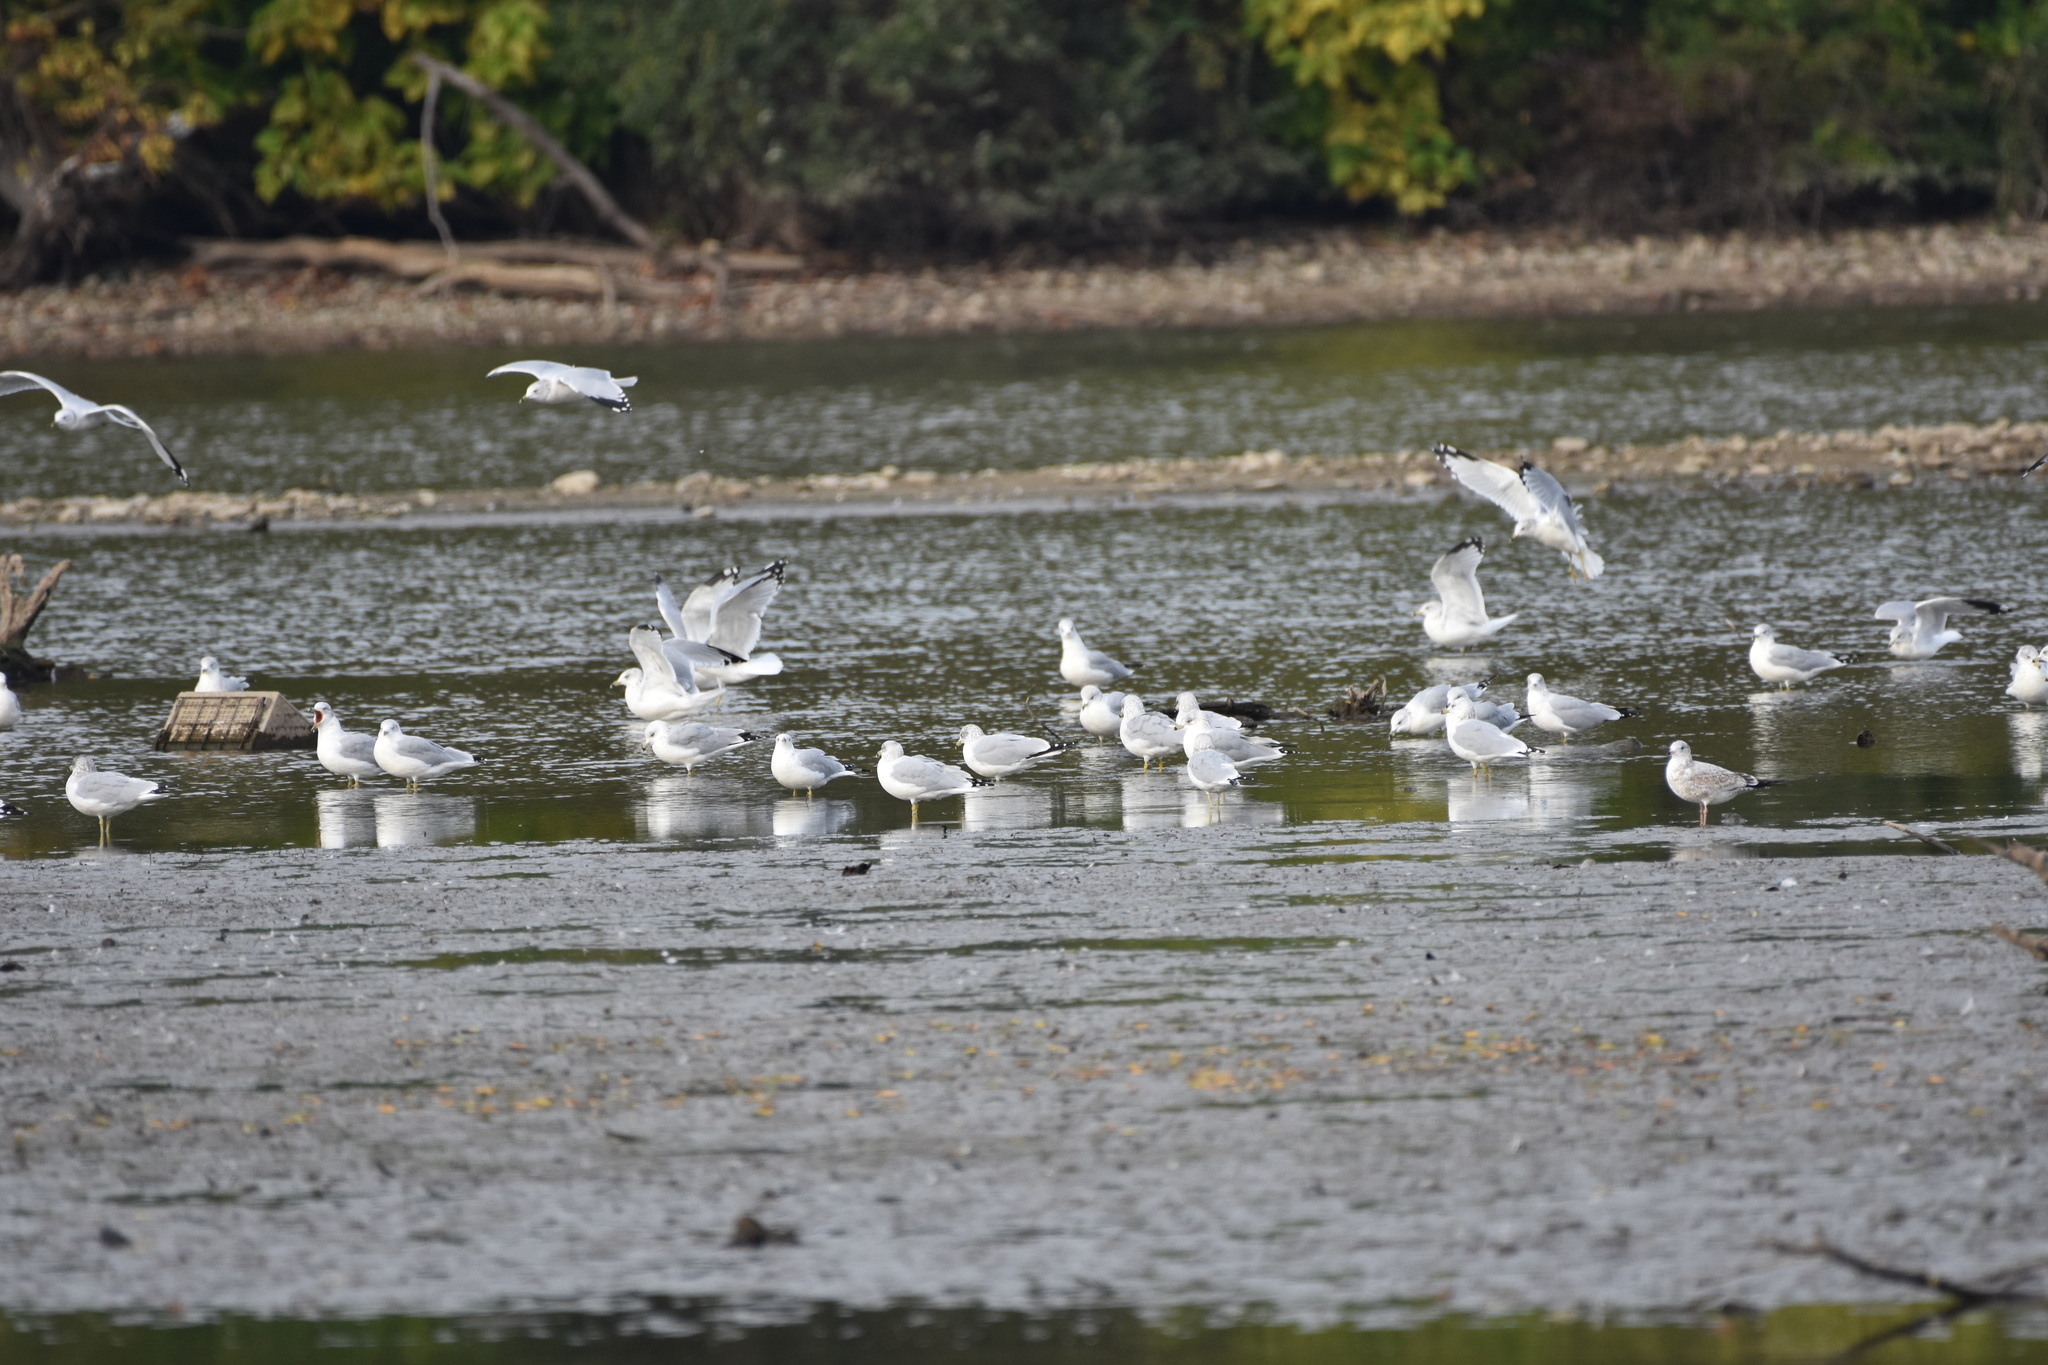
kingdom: Animalia
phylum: Chordata
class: Aves
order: Charadriiformes
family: Laridae
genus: Larus
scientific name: Larus delawarensis
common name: Ring-billed gull
